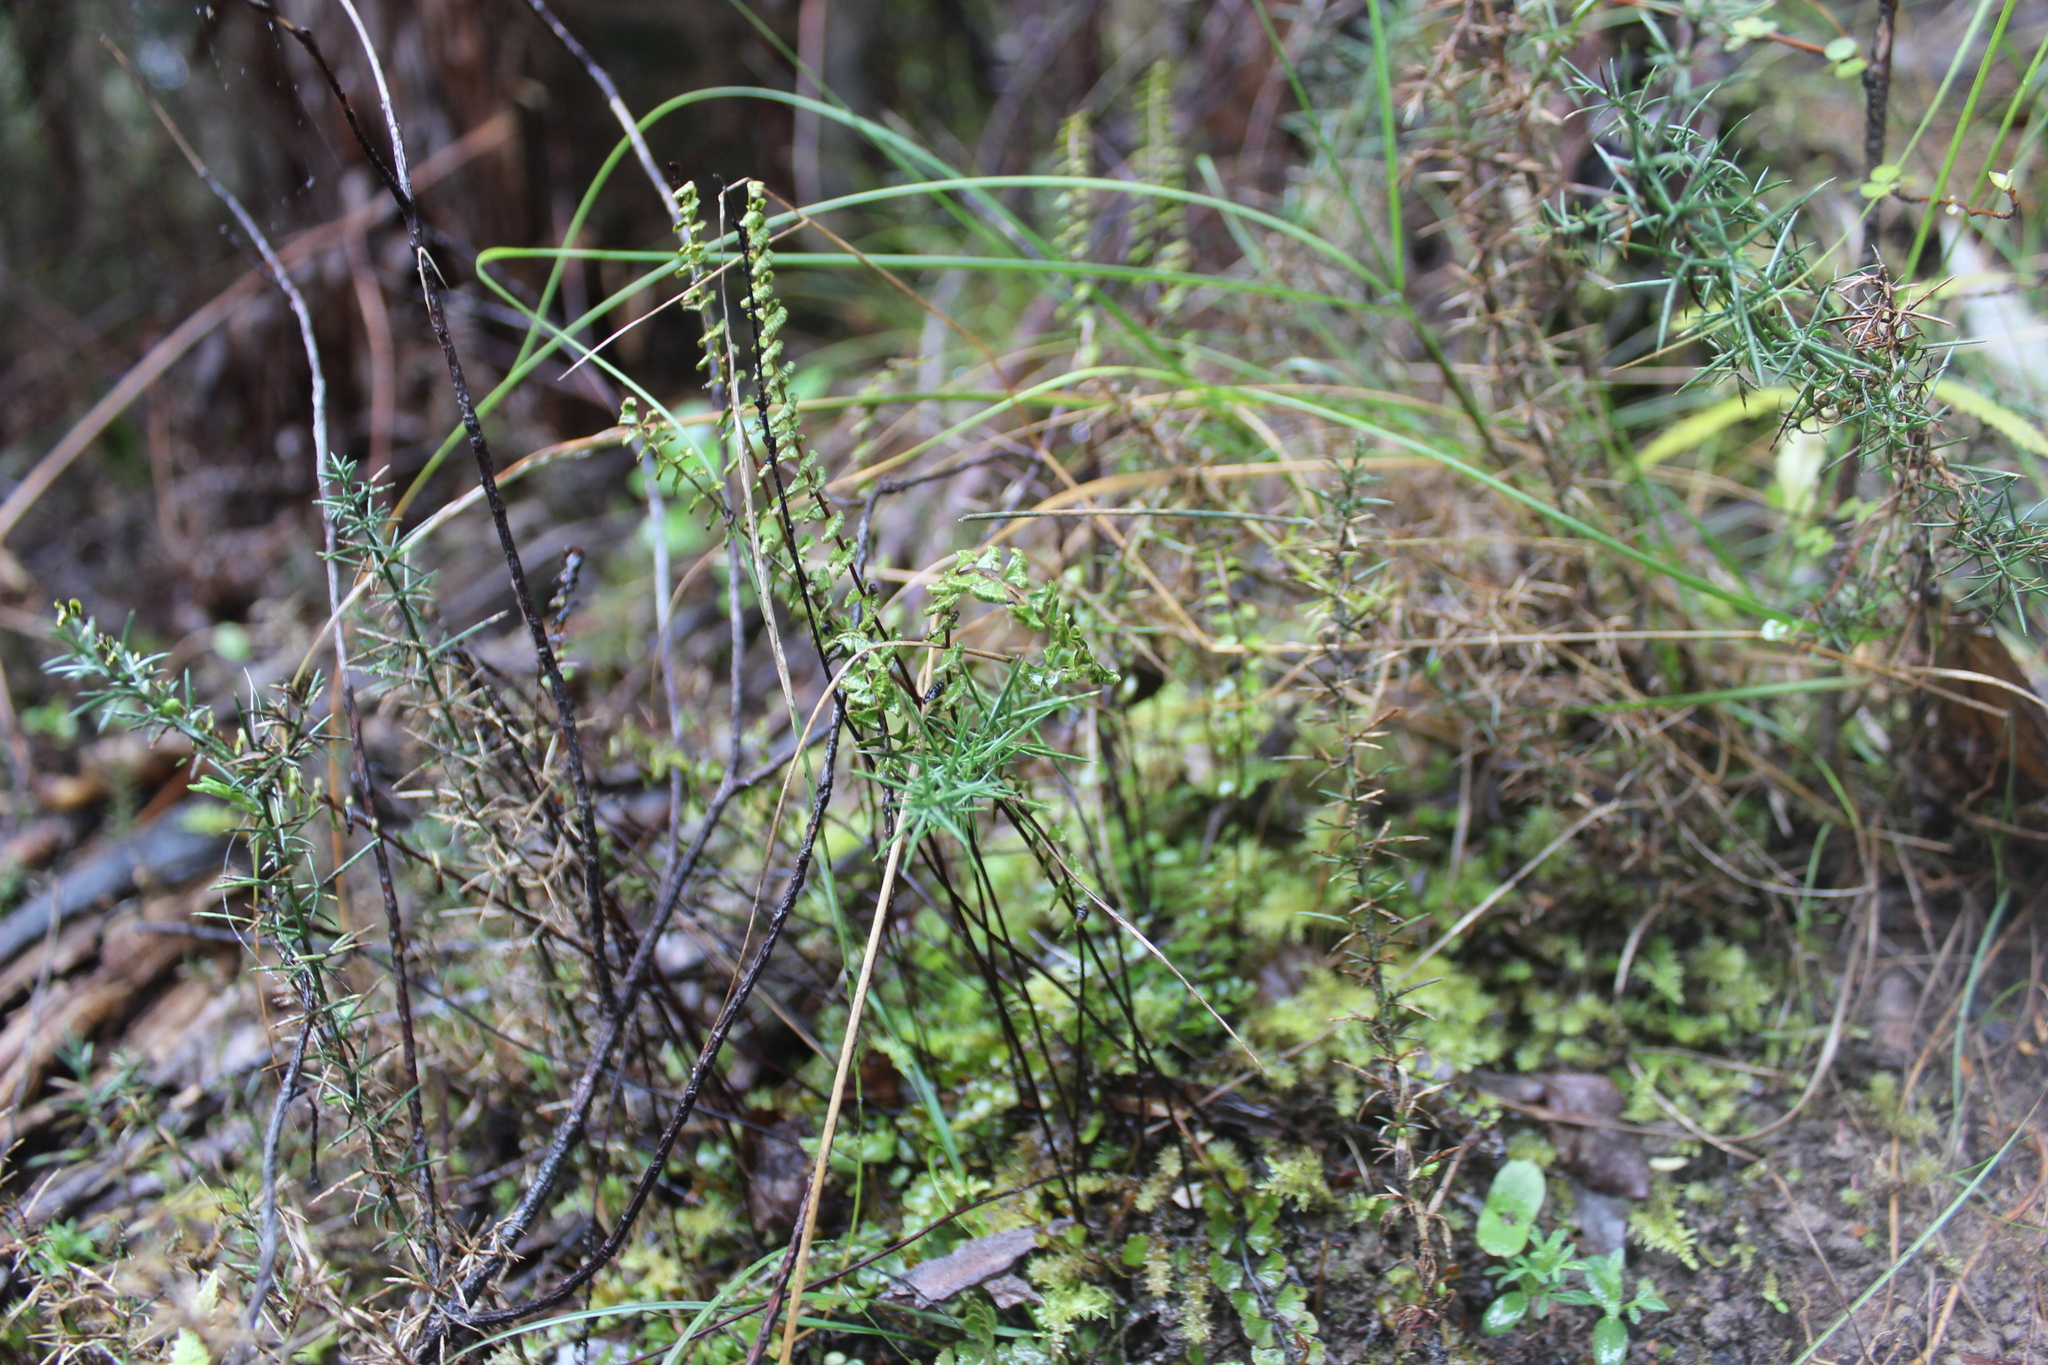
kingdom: Plantae
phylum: Tracheophyta
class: Polypodiopsida
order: Polypodiales
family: Lindsaeaceae
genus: Lindsaea
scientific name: Lindsaea linearis
